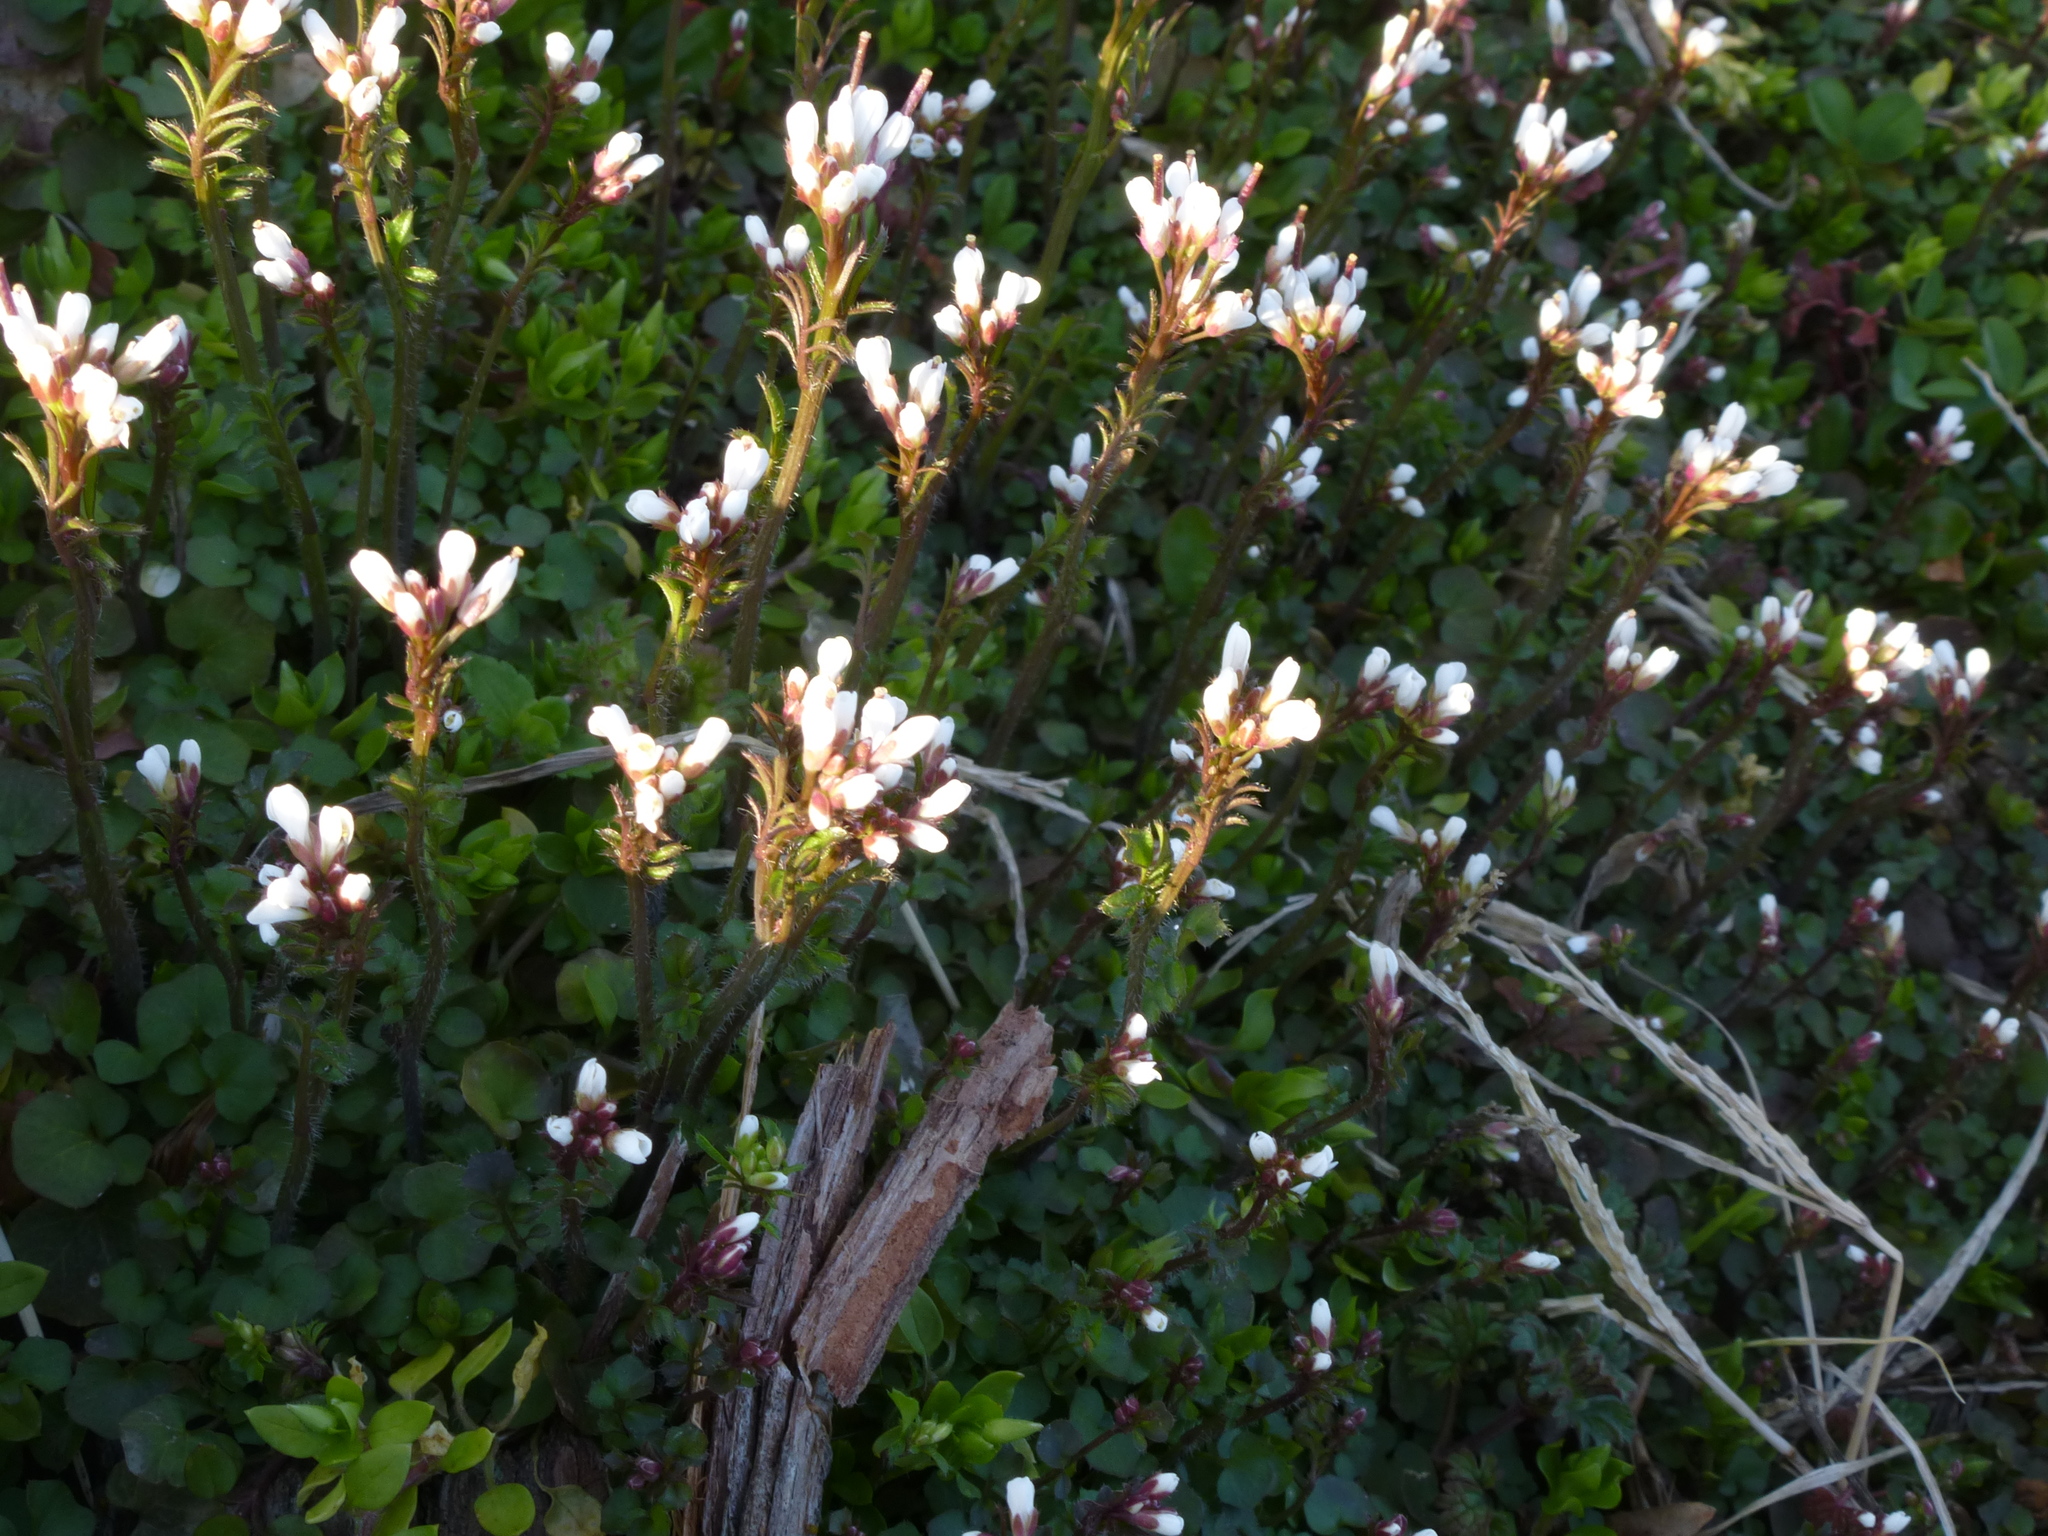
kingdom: Plantae
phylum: Tracheophyta
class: Magnoliopsida
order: Brassicales
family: Brassicaceae
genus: Cardamine
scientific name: Cardamine hirsuta
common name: Hairy bittercress
